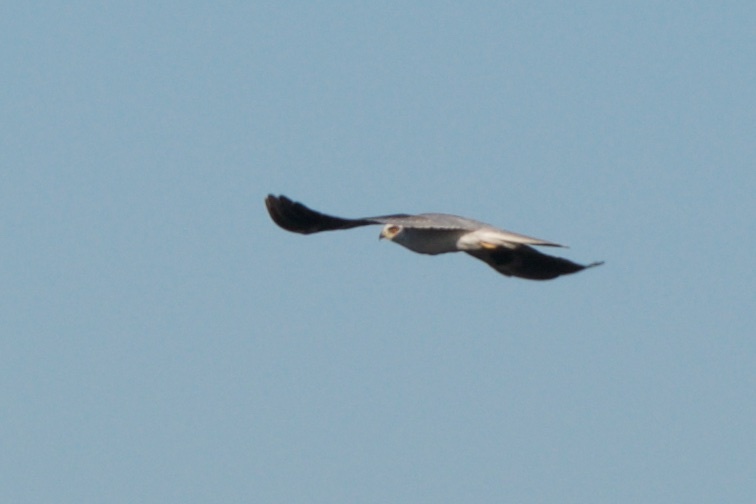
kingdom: Animalia
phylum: Chordata
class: Aves
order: Accipitriformes
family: Accipitridae
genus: Elanus
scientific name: Elanus leucurus
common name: White-tailed kite
